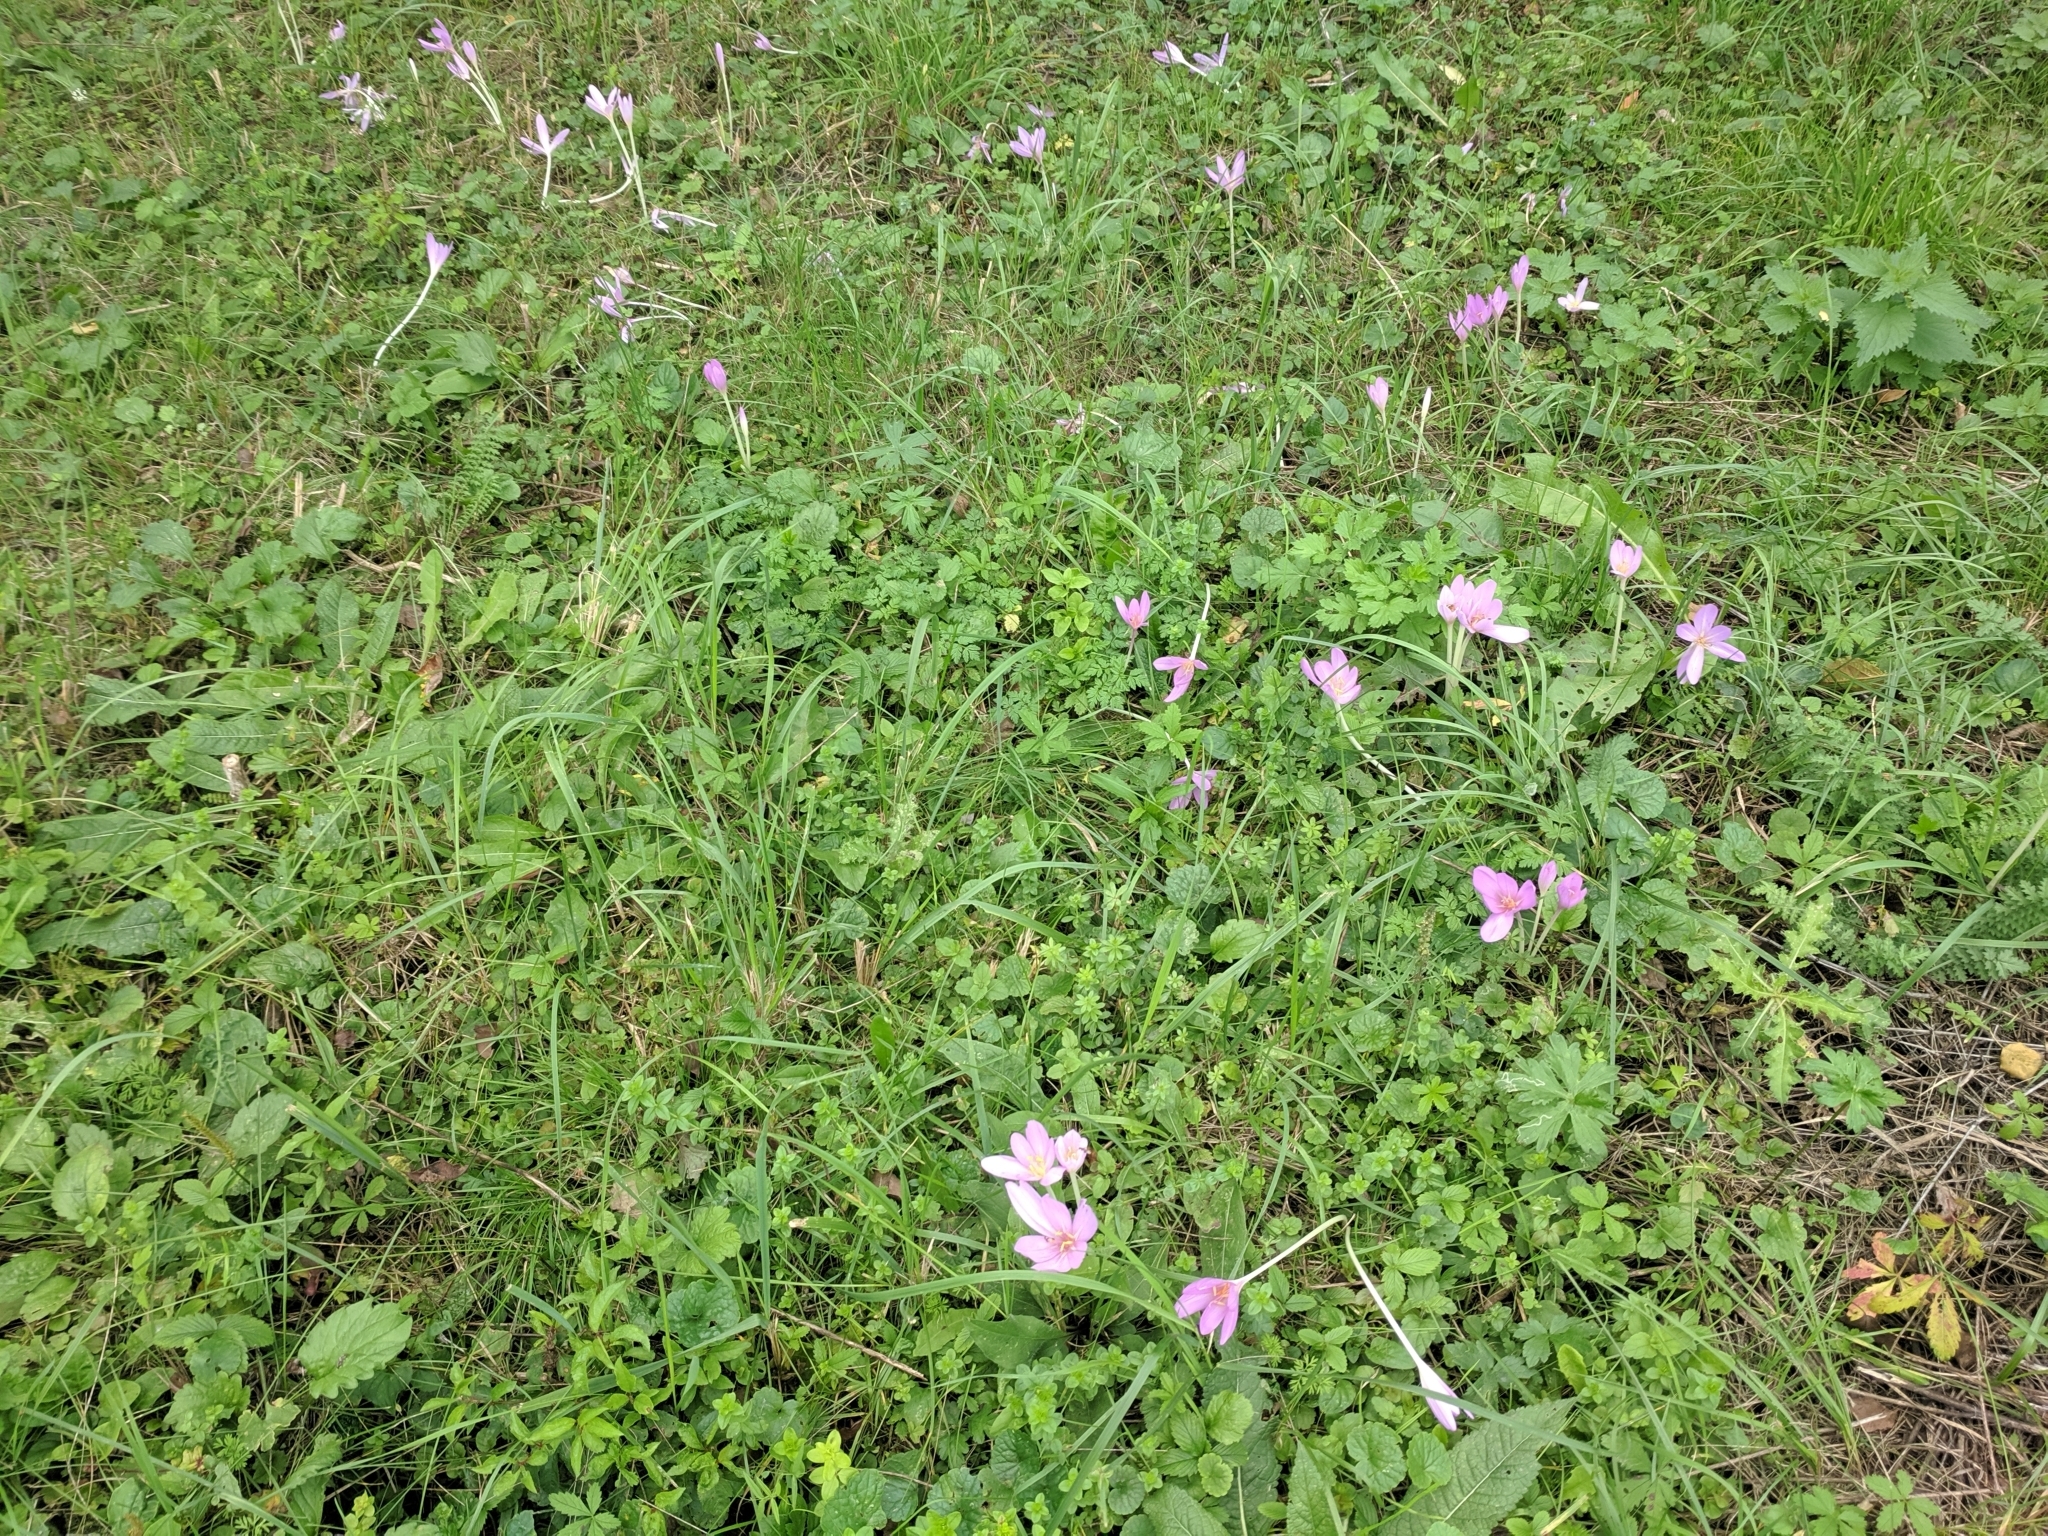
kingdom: Plantae
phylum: Tracheophyta
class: Liliopsida
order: Liliales
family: Colchicaceae
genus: Colchicum
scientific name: Colchicum autumnale
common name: Autumn crocus
